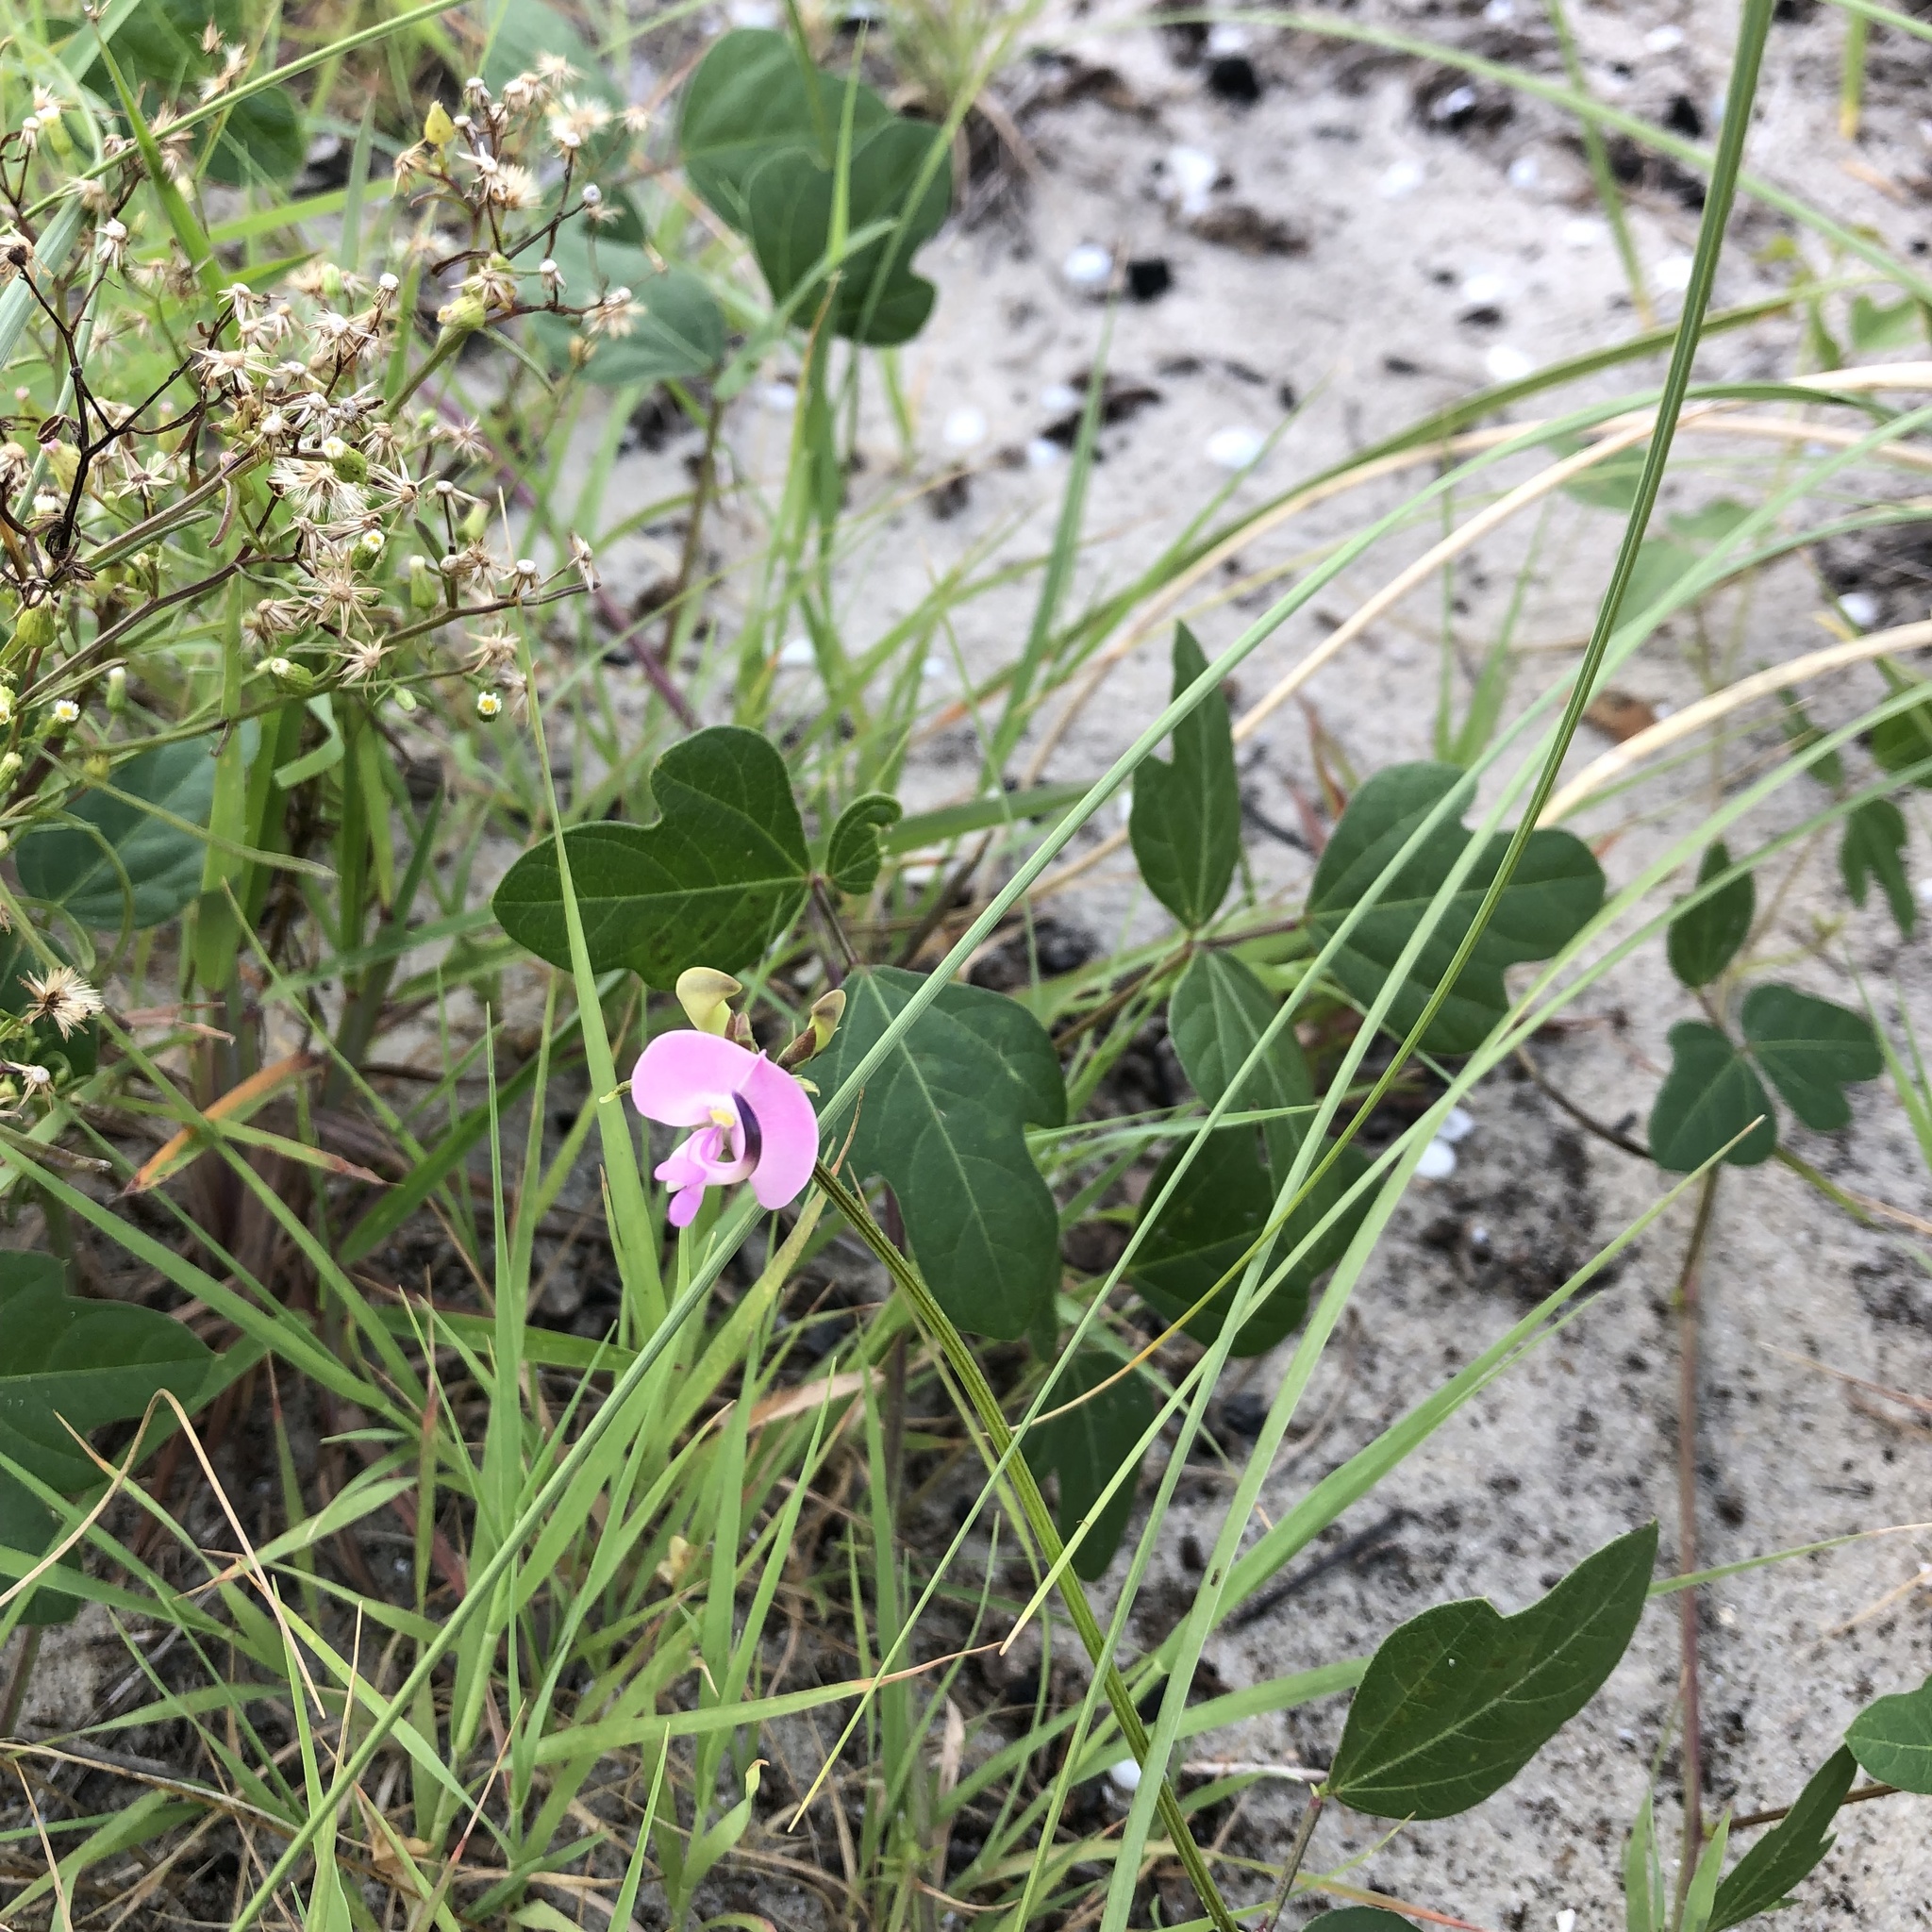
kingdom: Plantae
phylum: Tracheophyta
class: Magnoliopsida
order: Fabales
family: Fabaceae
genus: Strophostyles
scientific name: Strophostyles helvola
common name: Trailing wild bean
